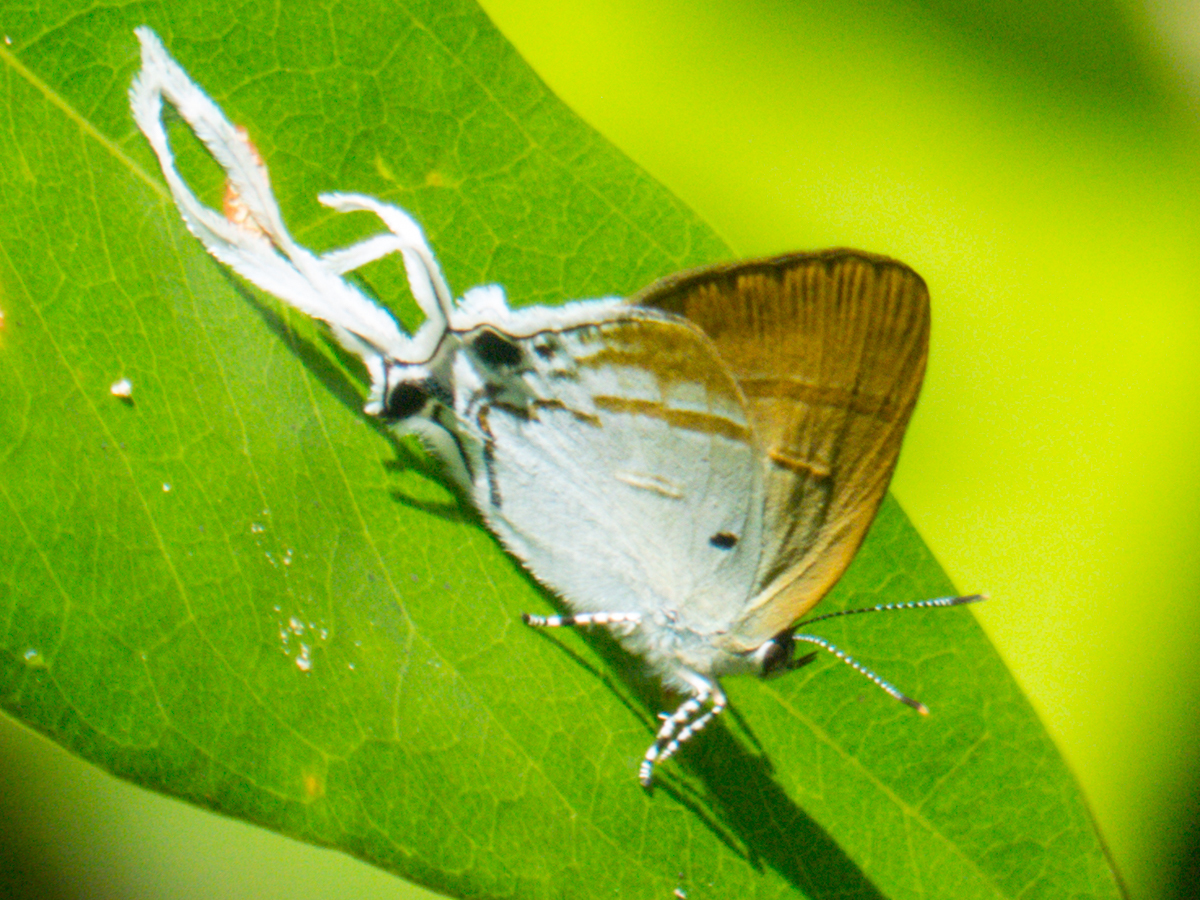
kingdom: Animalia
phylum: Arthropoda
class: Insecta
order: Lepidoptera
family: Lycaenidae
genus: Zeltus
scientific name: Zeltus amasa
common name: Fluffy tit
